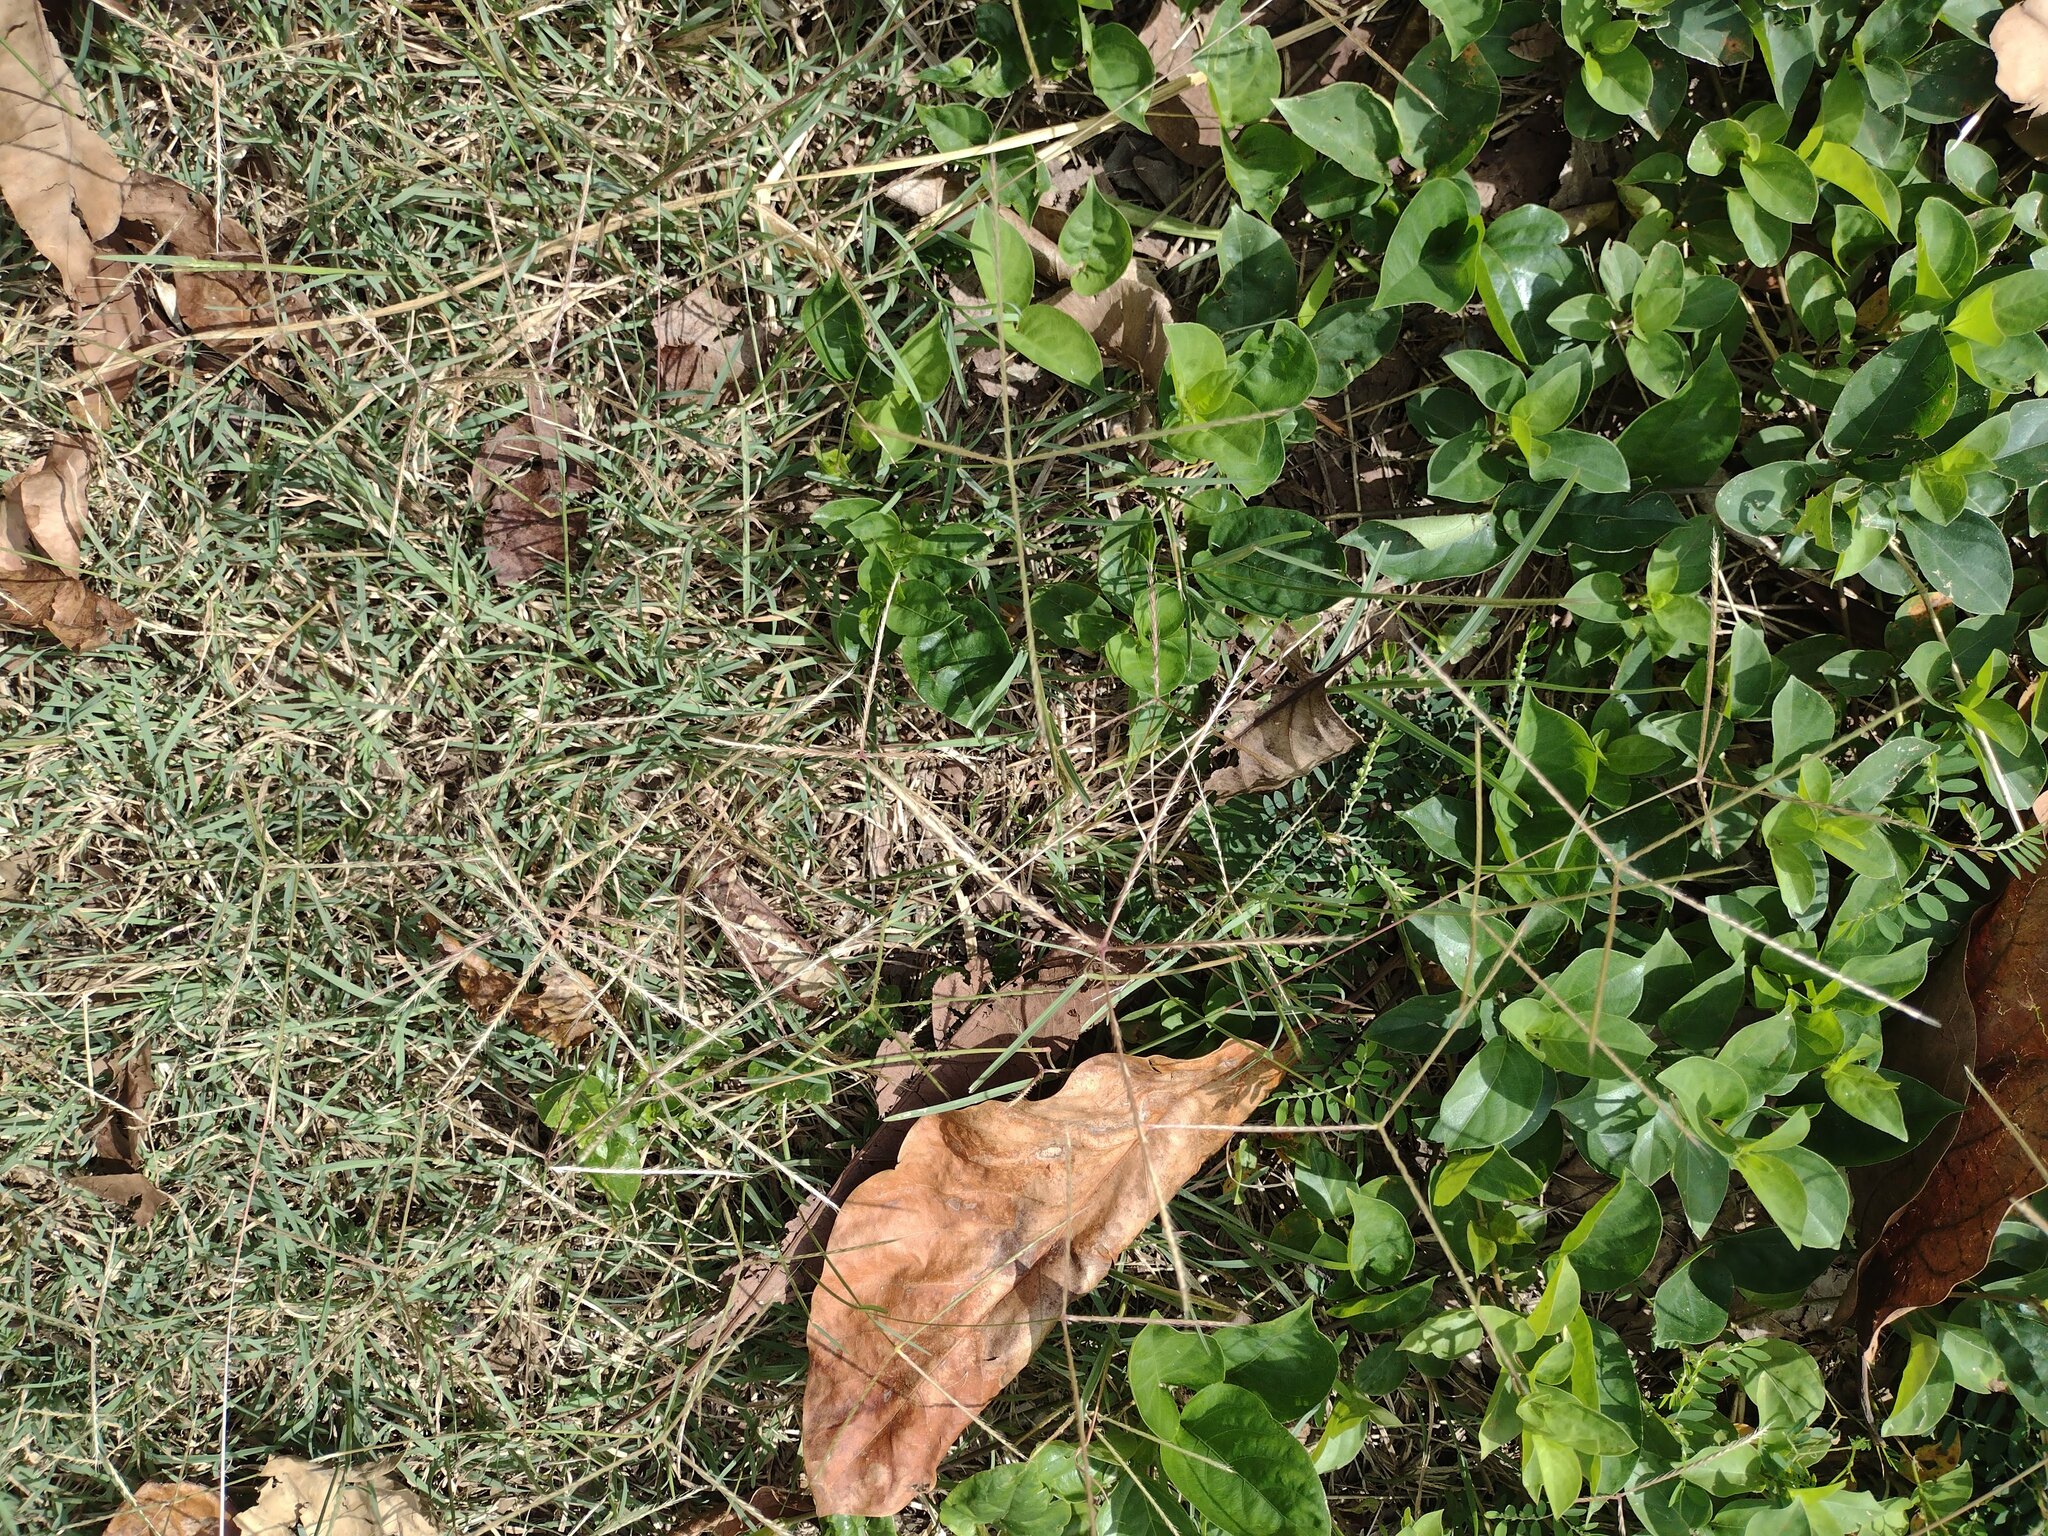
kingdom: Plantae
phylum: Tracheophyta
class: Liliopsida
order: Poales
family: Poaceae
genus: Chloris
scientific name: Chloris divaricata
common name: Spreading windmill grass
